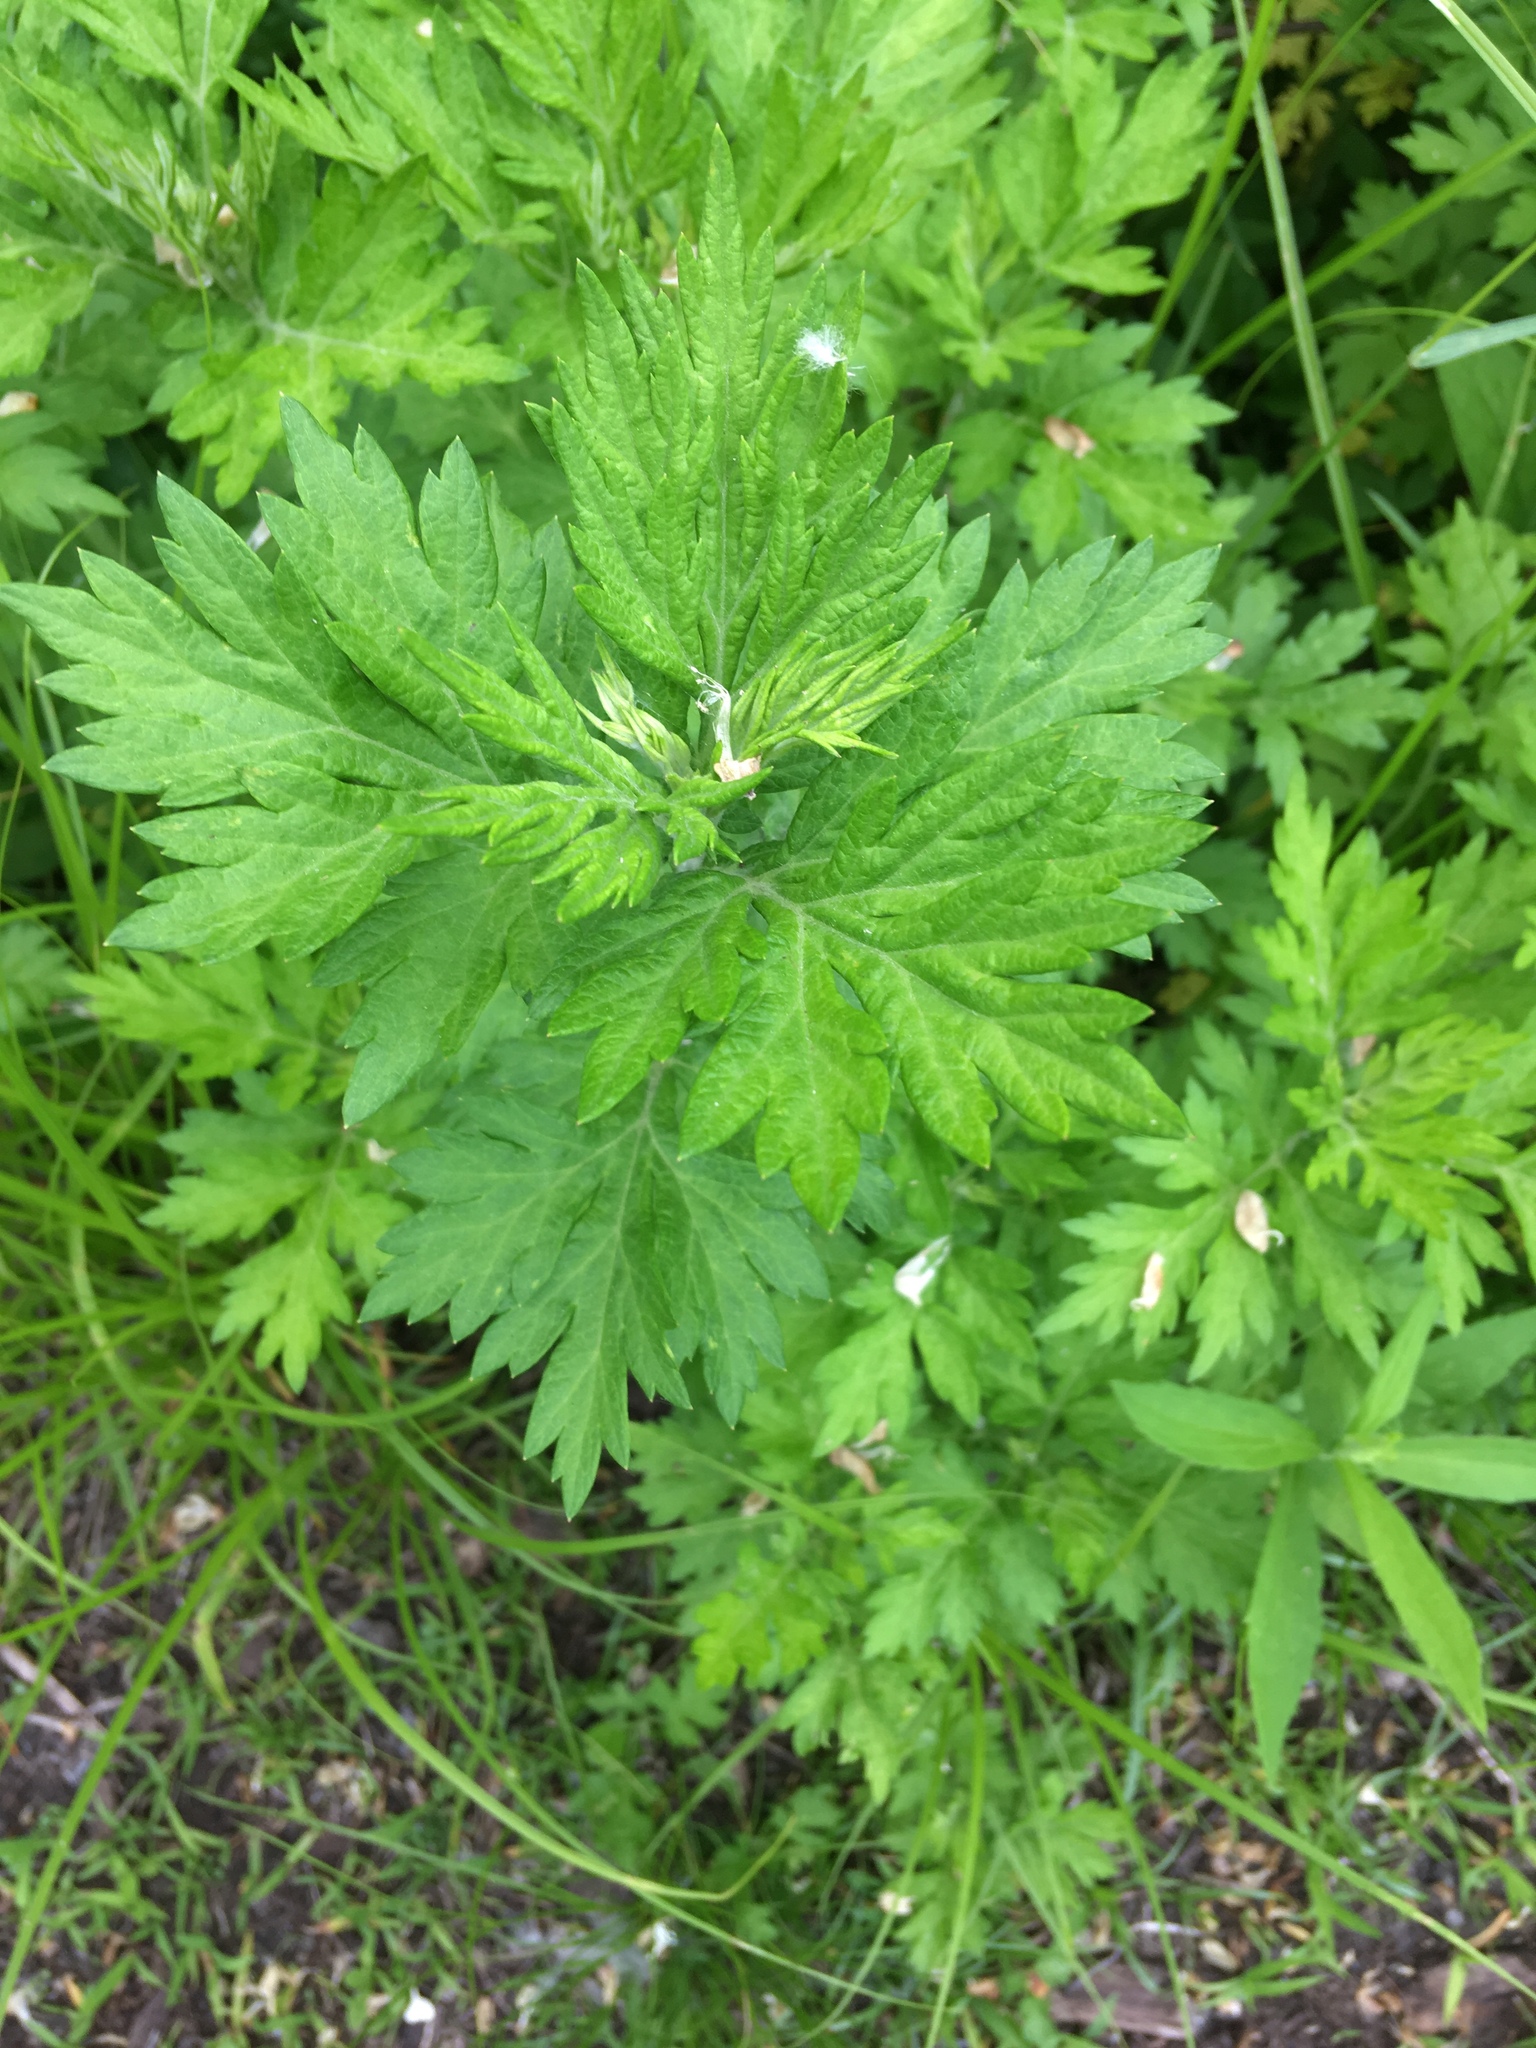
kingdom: Plantae
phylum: Tracheophyta
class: Magnoliopsida
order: Asterales
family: Asteraceae
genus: Artemisia
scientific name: Artemisia vulgaris
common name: Mugwort
